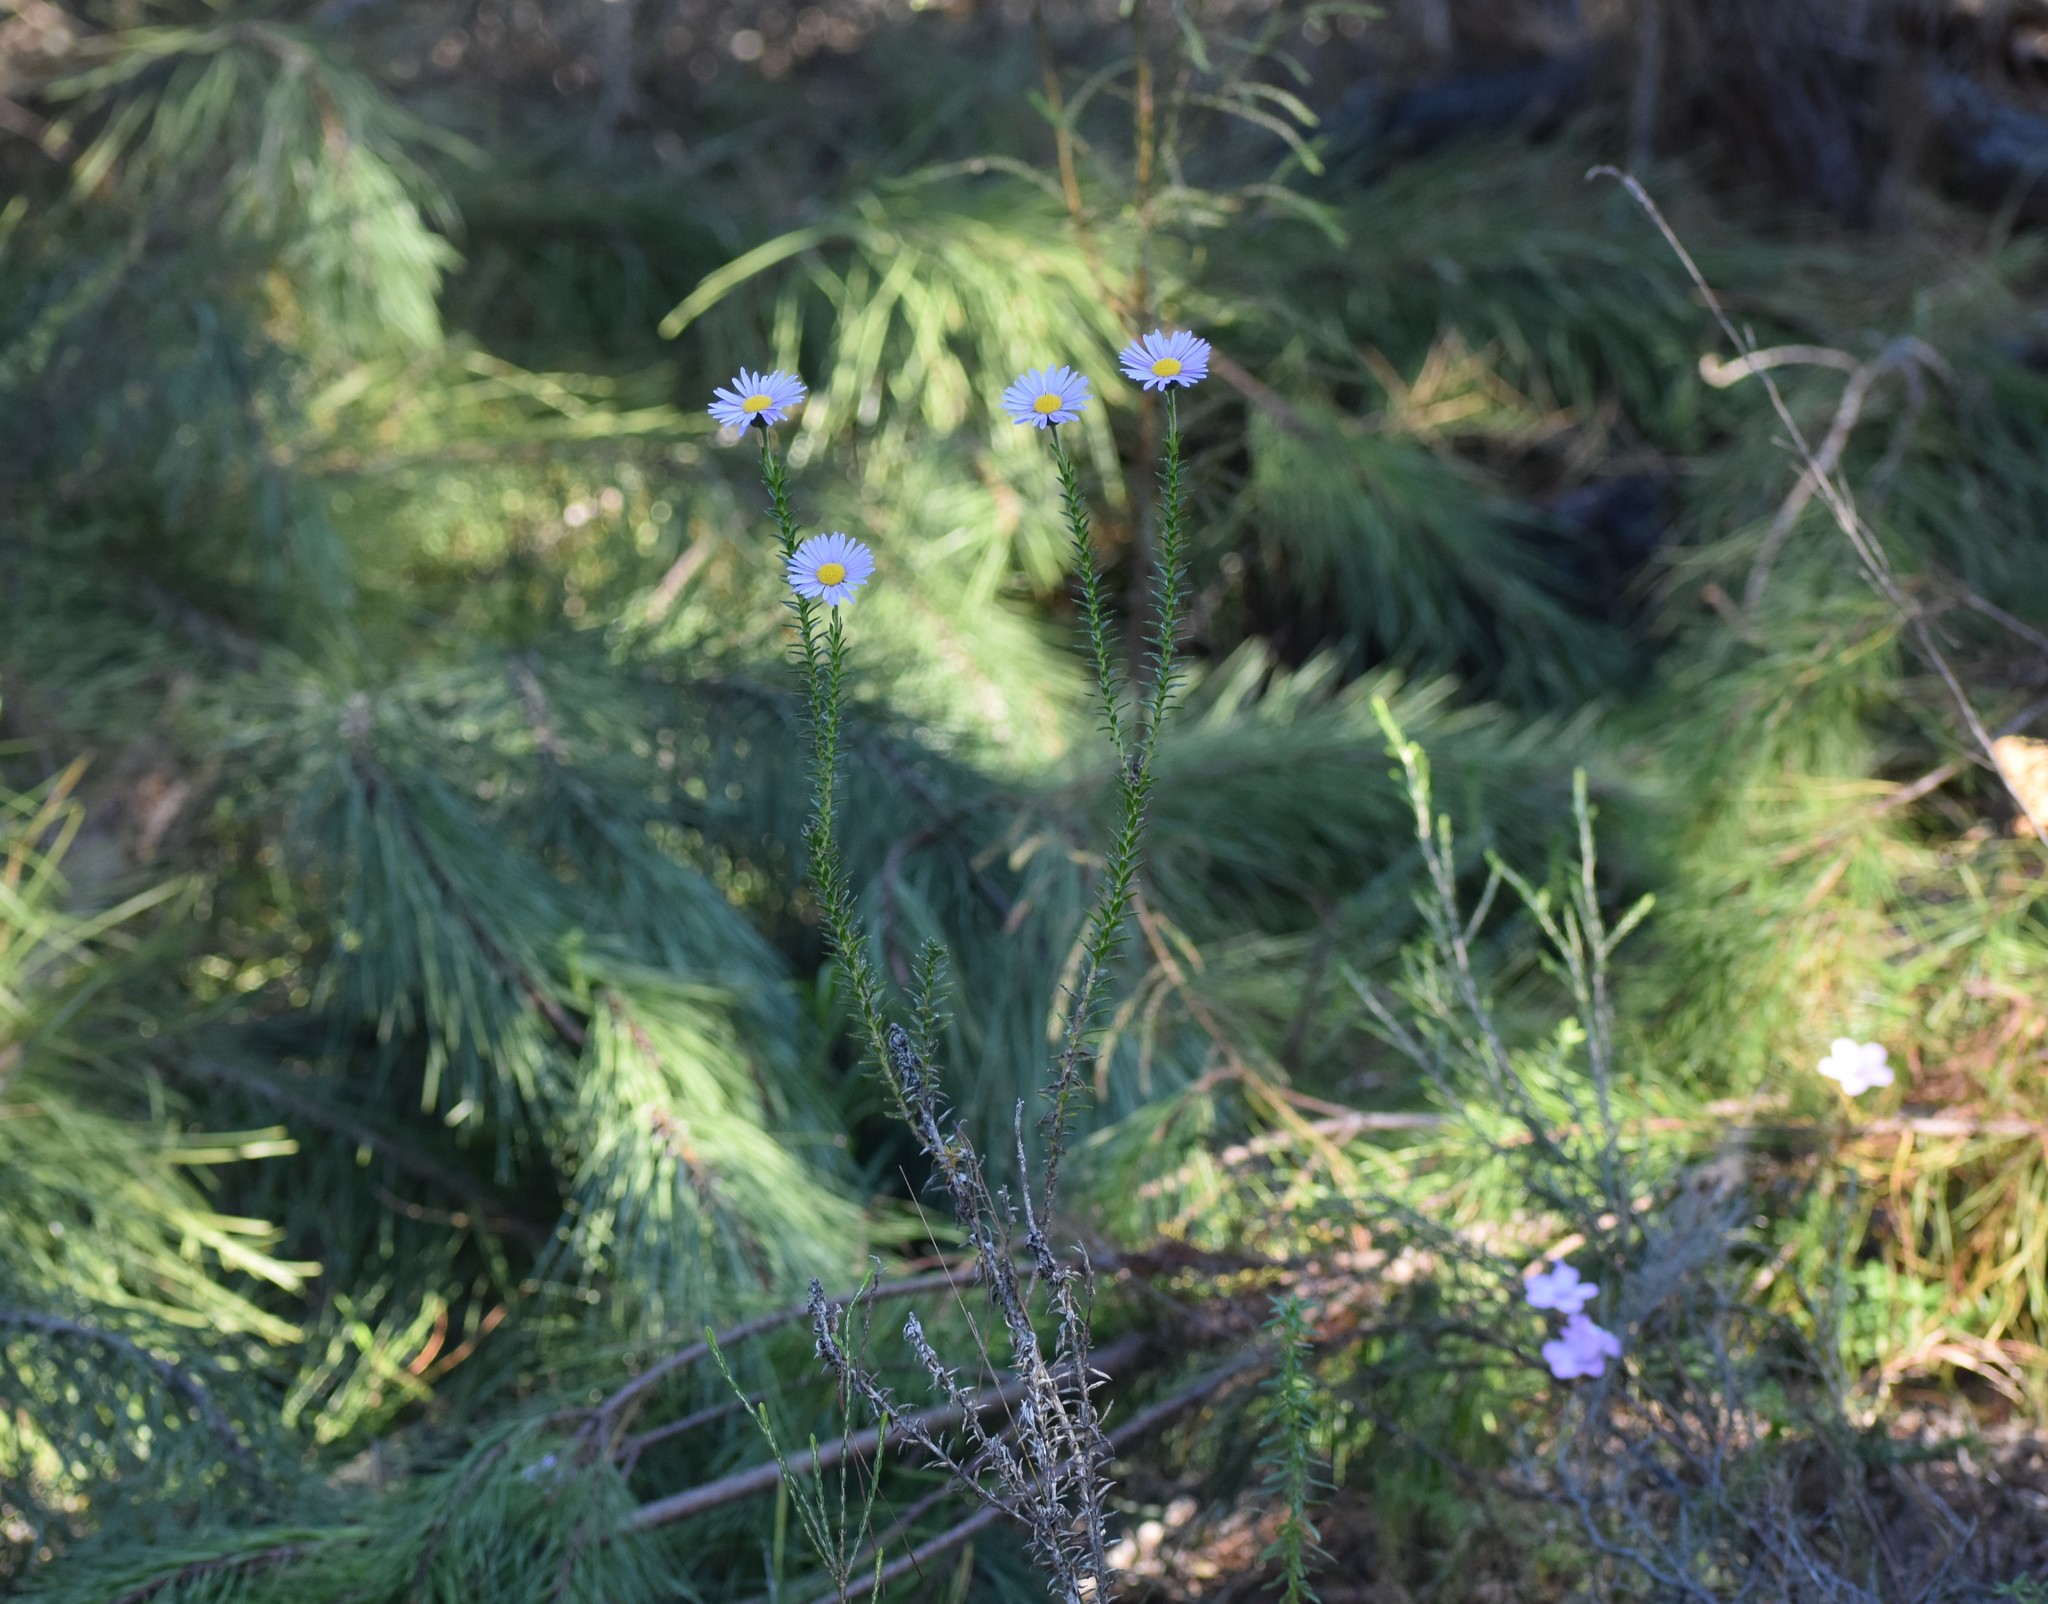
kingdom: Plantae
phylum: Tracheophyta
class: Magnoliopsida
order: Asterales
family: Asteraceae
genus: Felicia
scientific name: Felicia echinata
